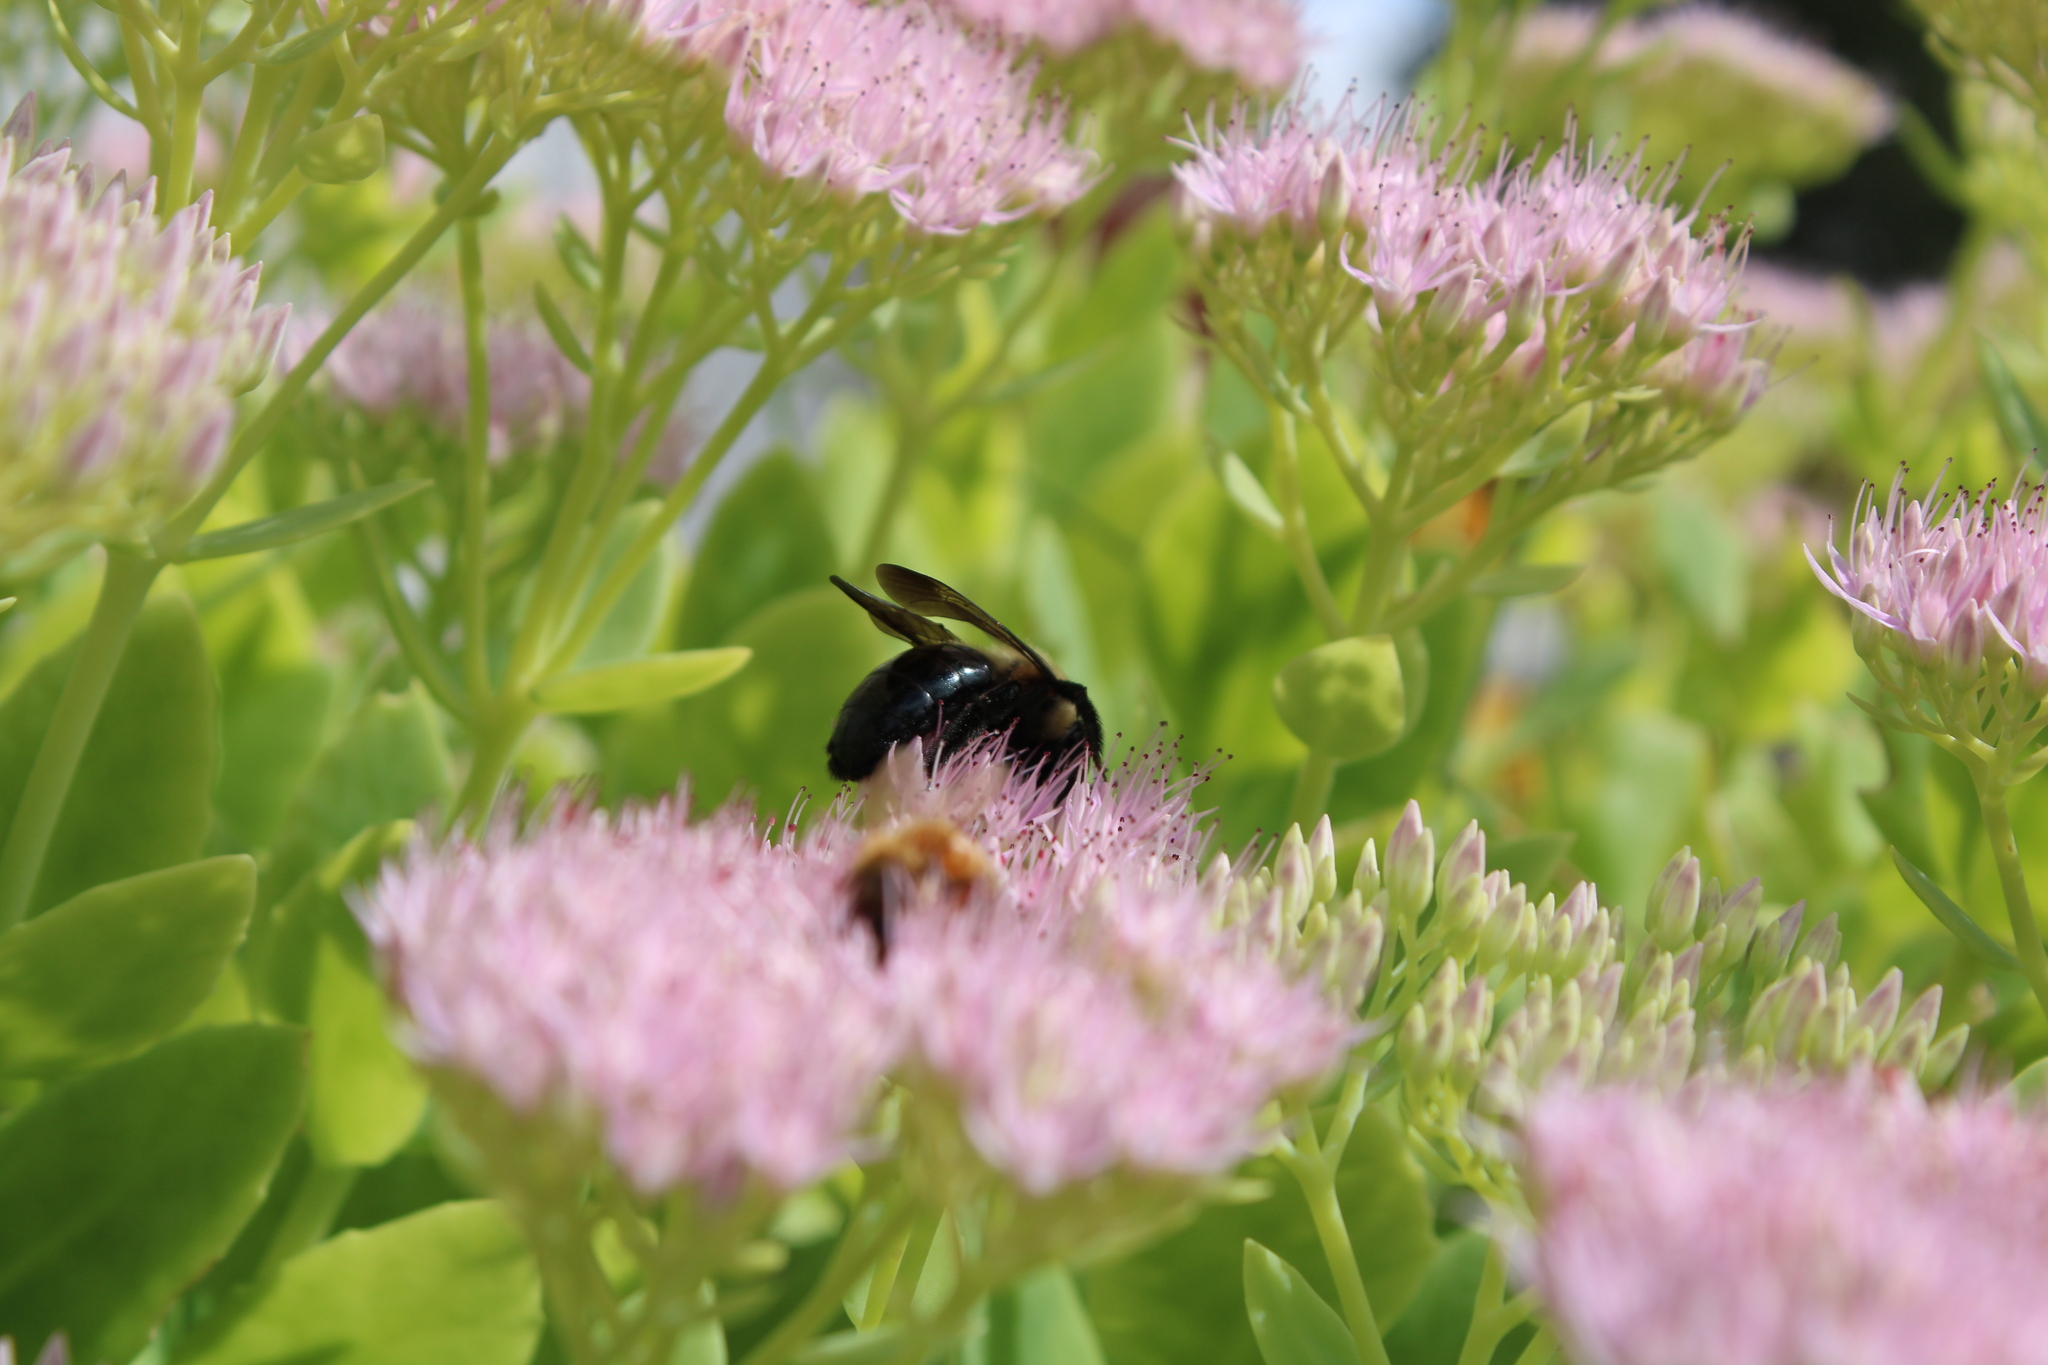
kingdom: Animalia
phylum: Arthropoda
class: Insecta
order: Hymenoptera
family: Apidae
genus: Xylocopa
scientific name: Xylocopa virginica
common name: Carpenter bee
